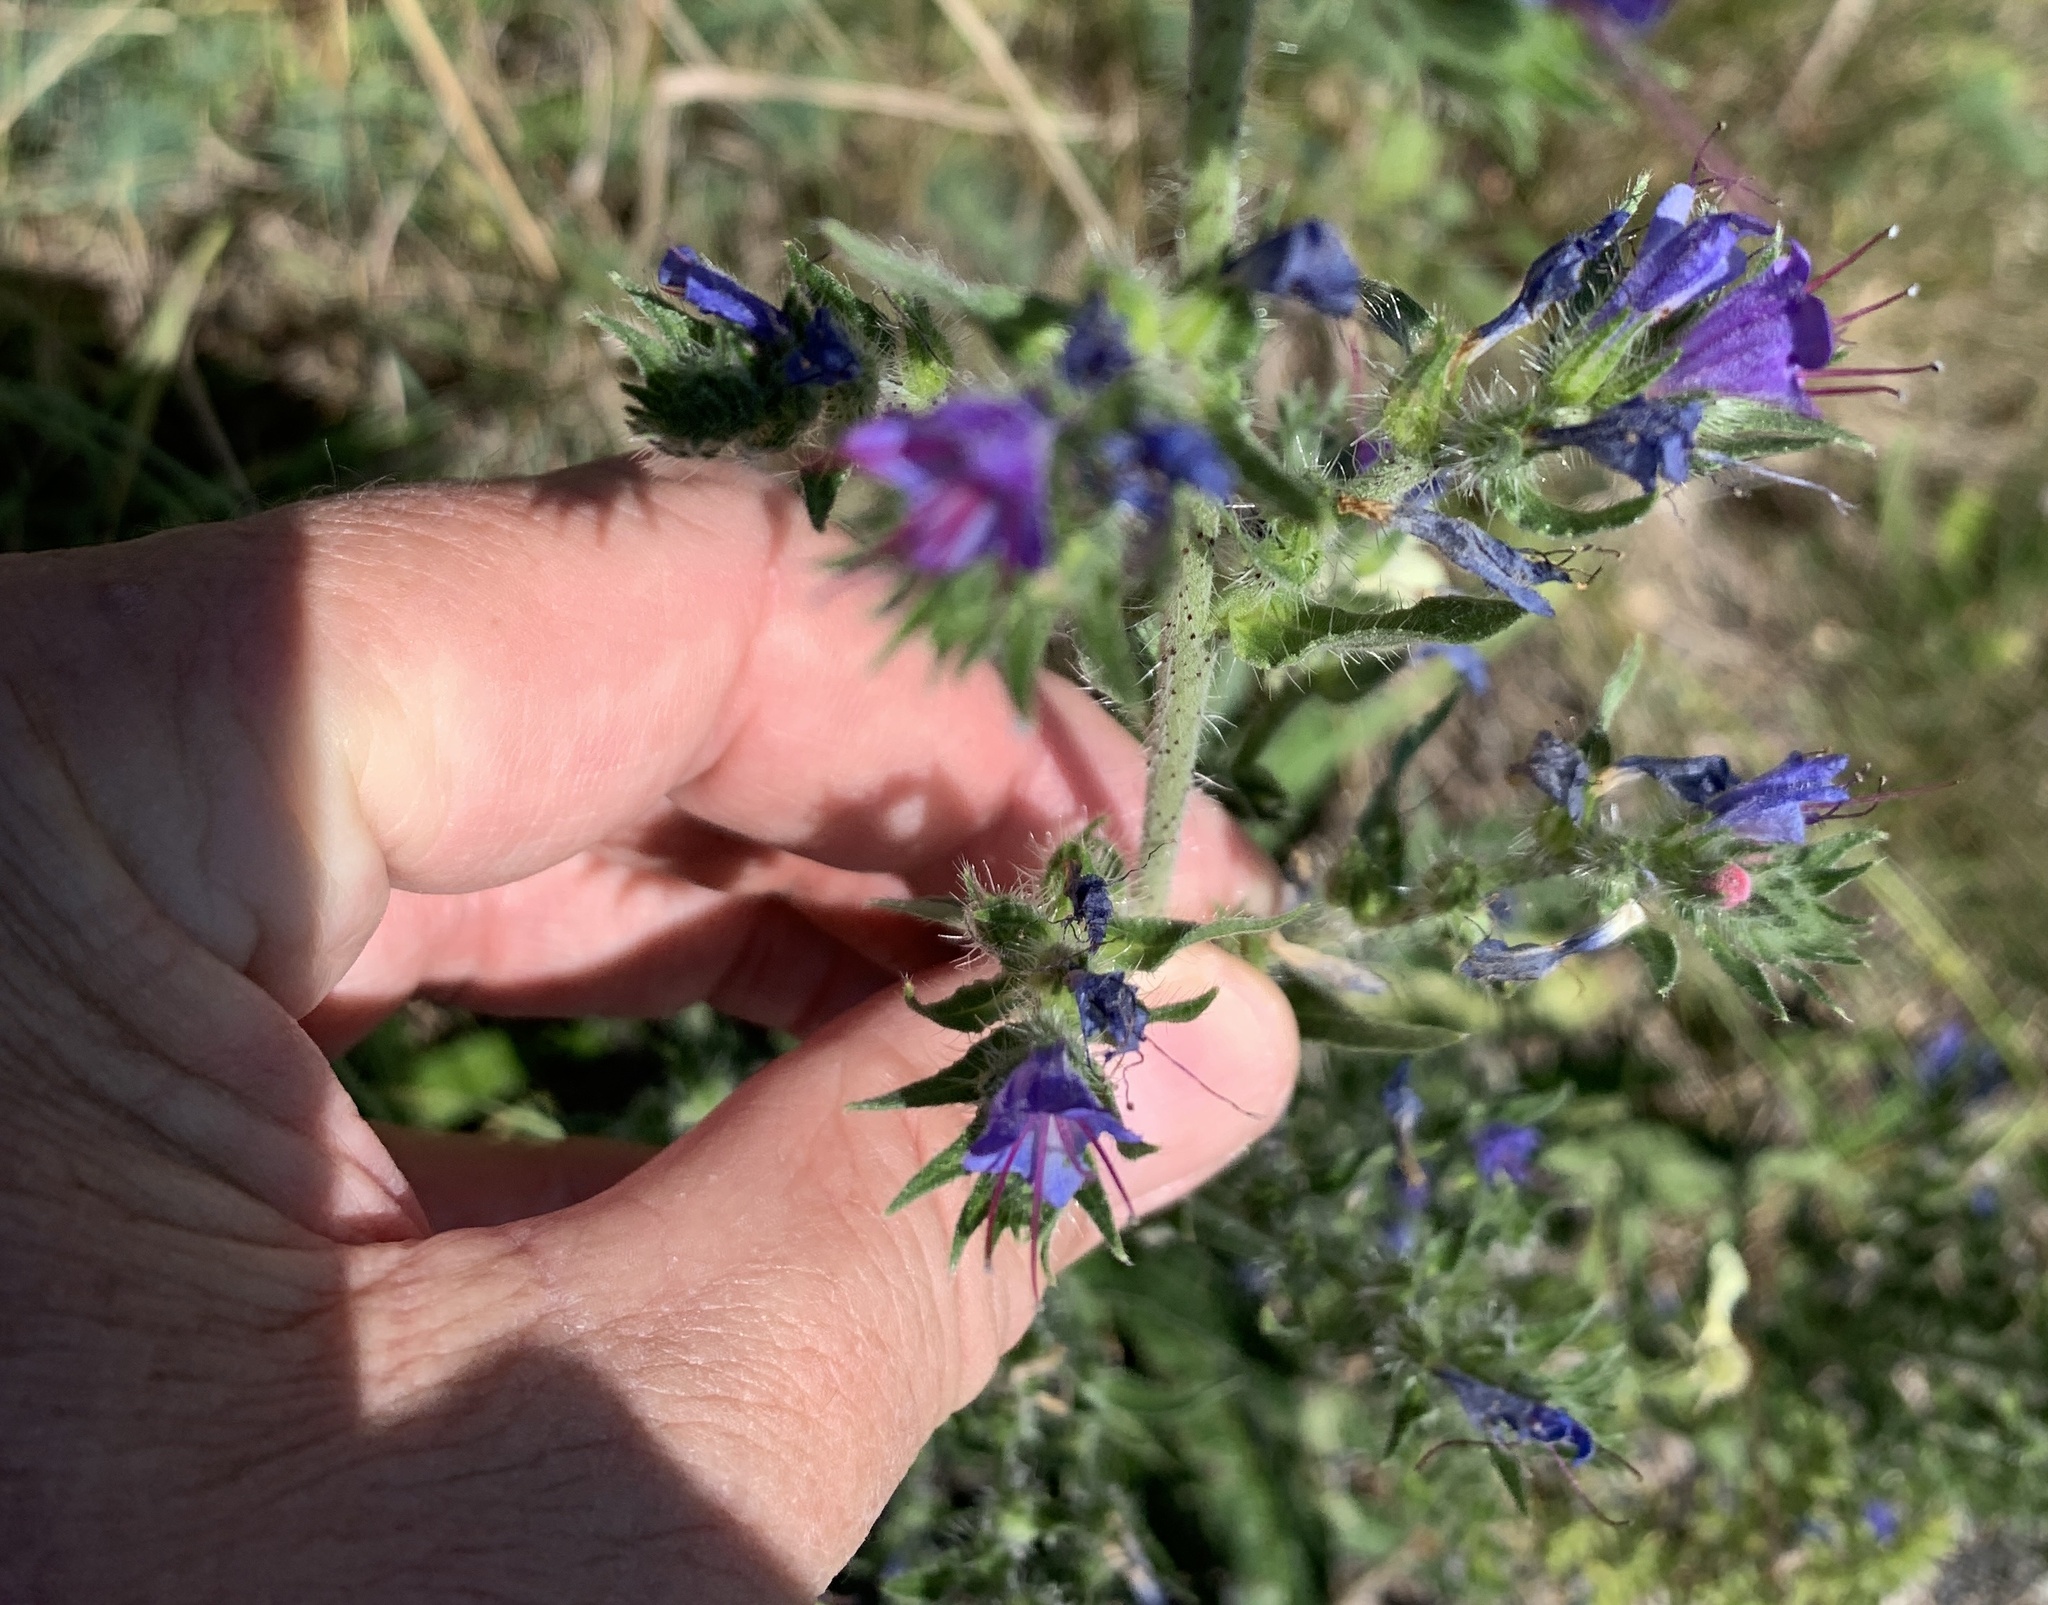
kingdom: Plantae
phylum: Tracheophyta
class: Magnoliopsida
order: Boraginales
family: Boraginaceae
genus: Echium
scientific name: Echium vulgare
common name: Common viper's bugloss
